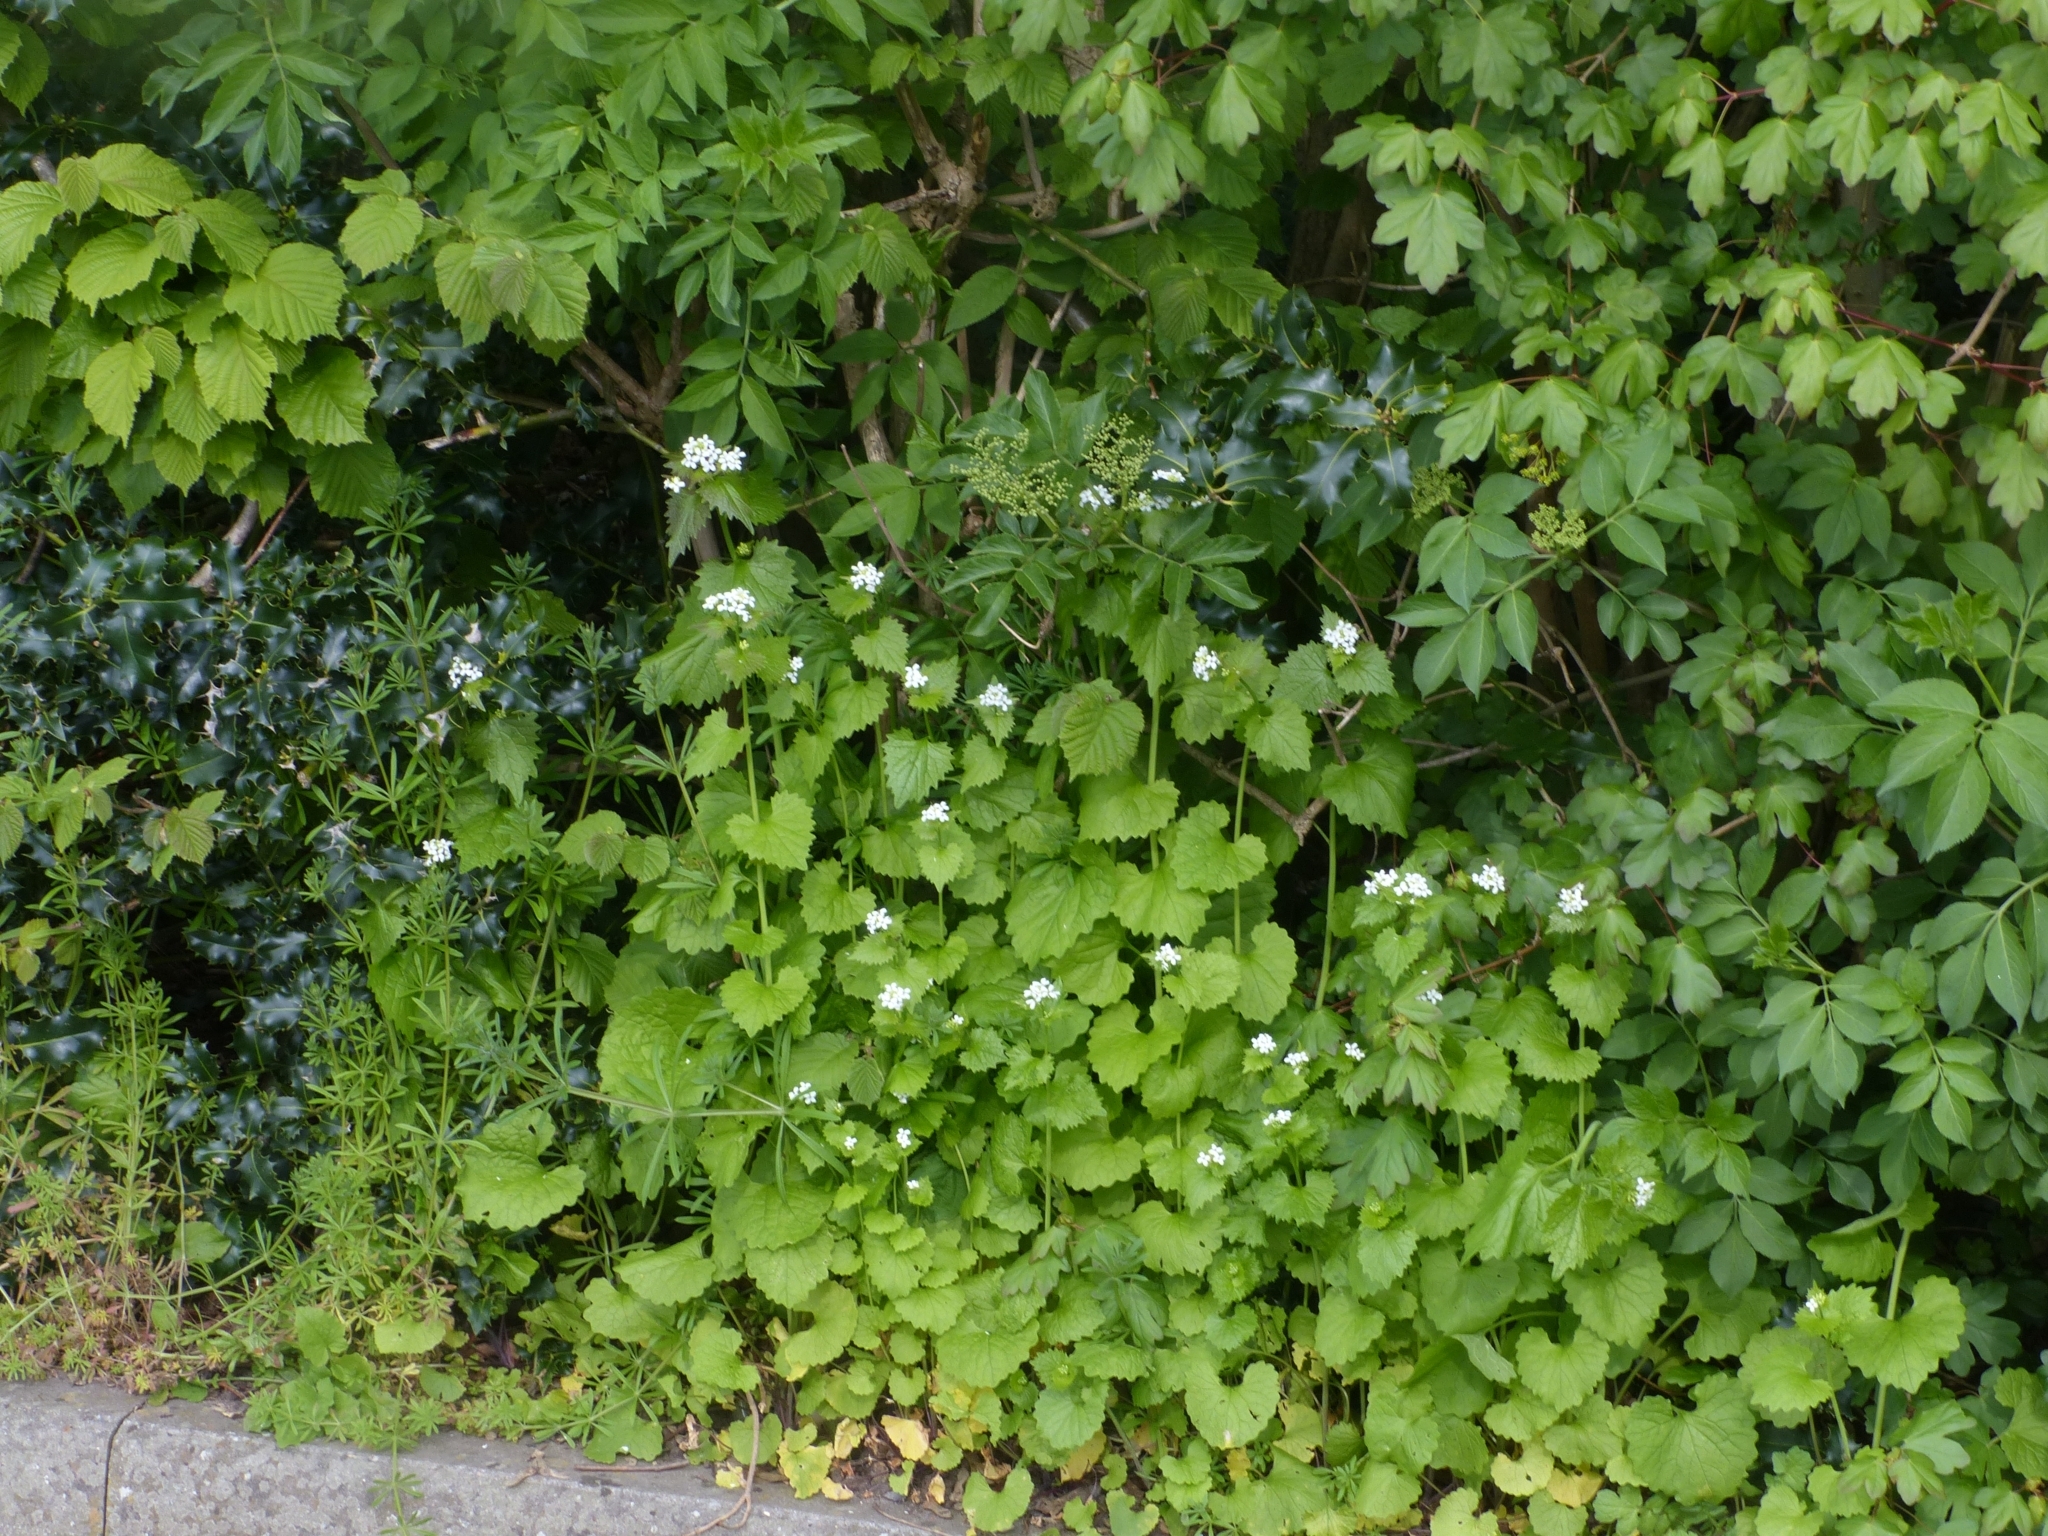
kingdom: Plantae
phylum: Tracheophyta
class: Magnoliopsida
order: Brassicales
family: Brassicaceae
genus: Alliaria
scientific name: Alliaria petiolata
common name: Garlic mustard
